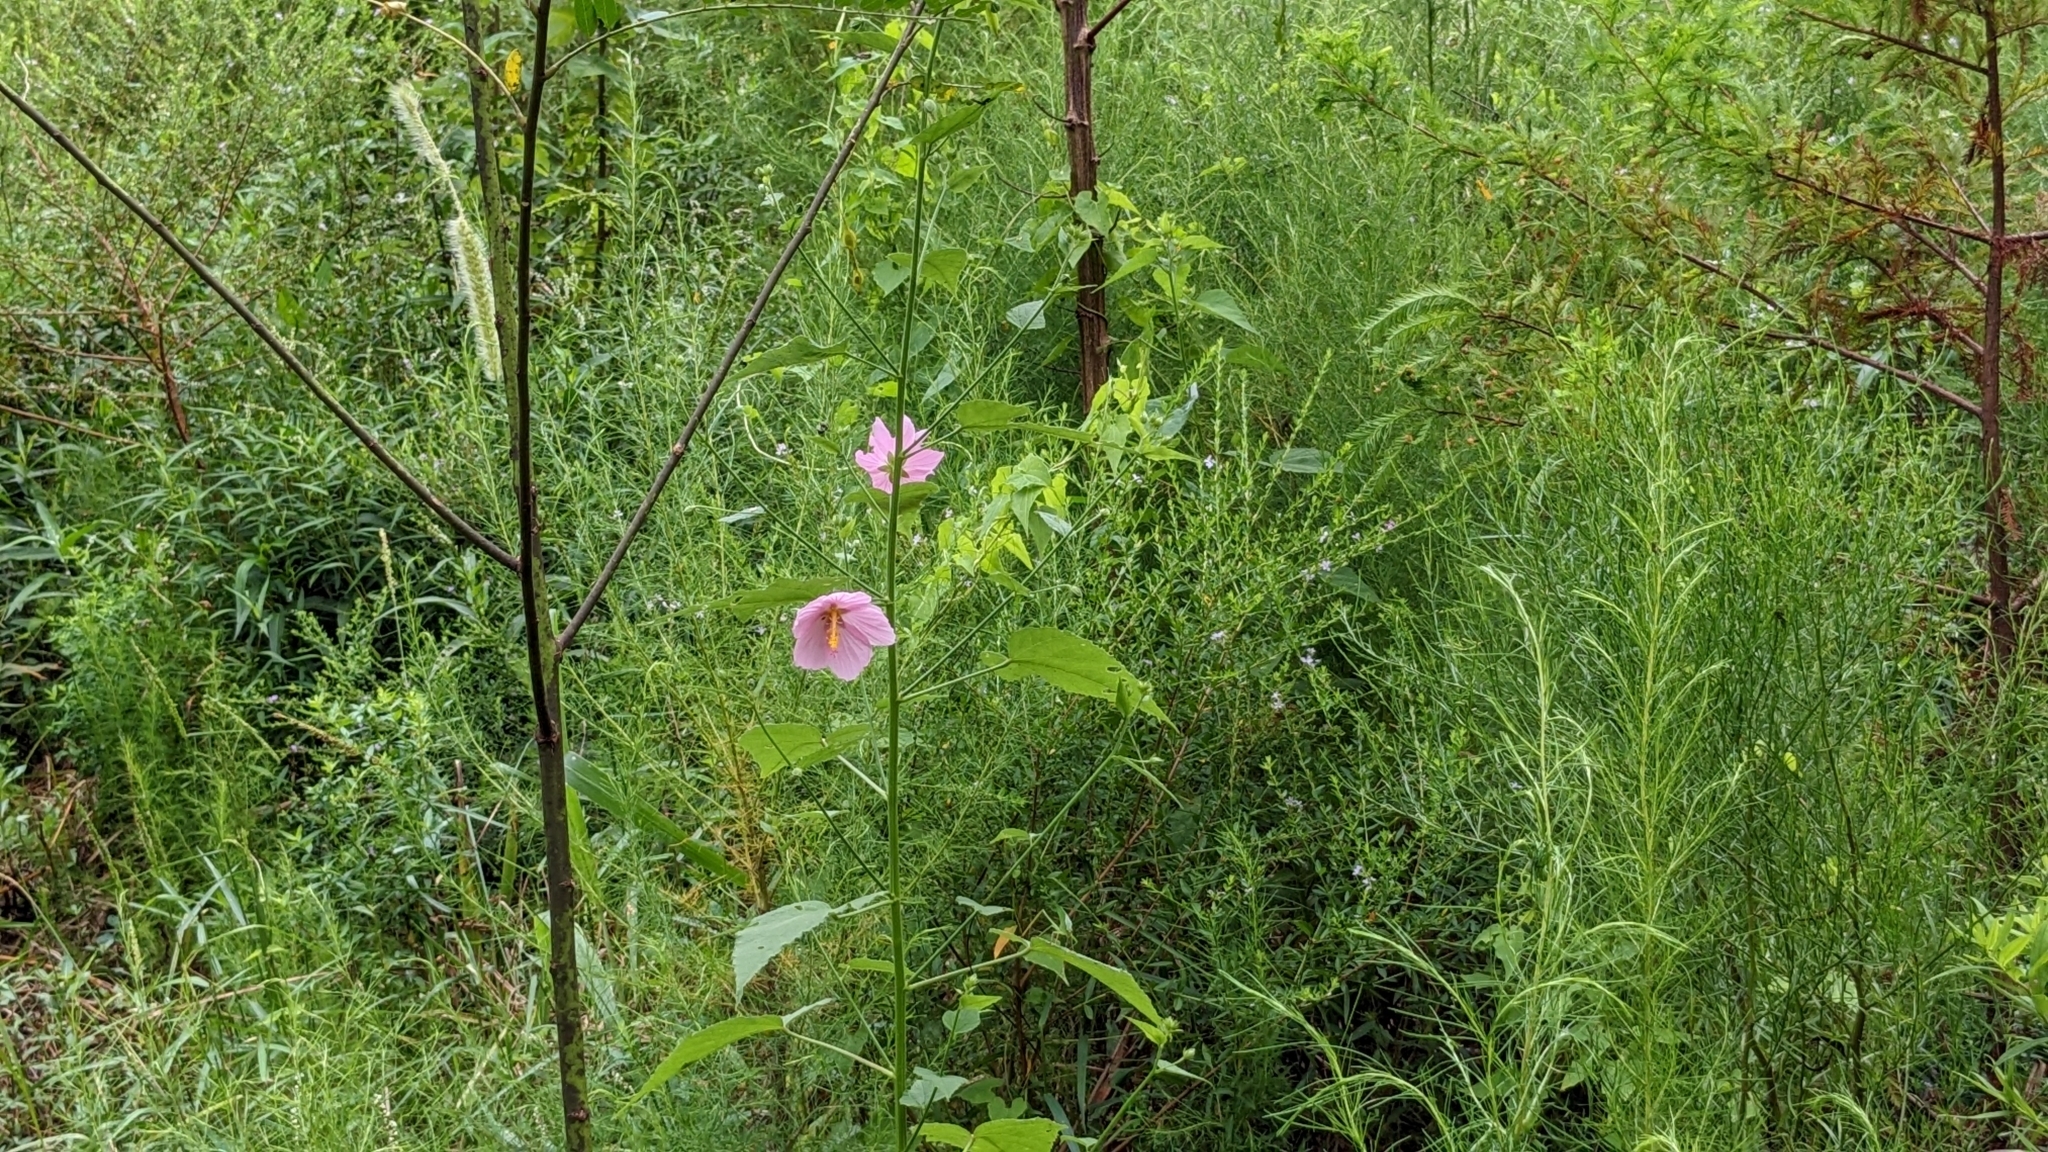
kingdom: Plantae
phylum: Tracheophyta
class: Magnoliopsida
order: Malvales
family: Malvaceae
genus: Kosteletzkya
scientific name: Kosteletzkya pentacarpos
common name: Virginia saltmarsh mallow
